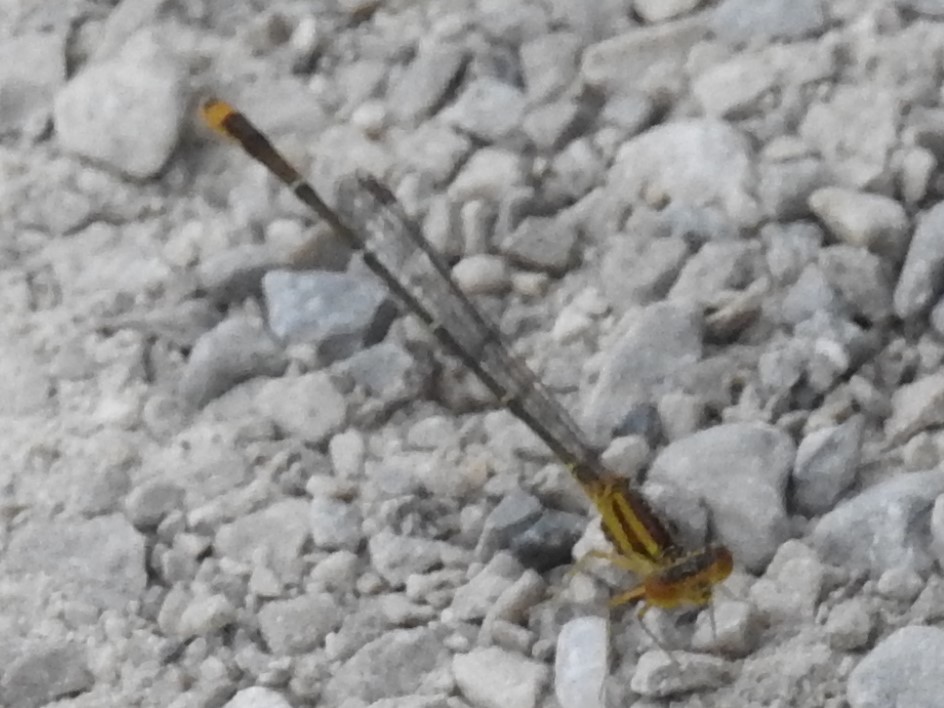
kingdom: Animalia
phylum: Arthropoda
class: Insecta
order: Odonata
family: Coenagrionidae
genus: Enallagma
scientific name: Enallagma signatum
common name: Orange bluet
